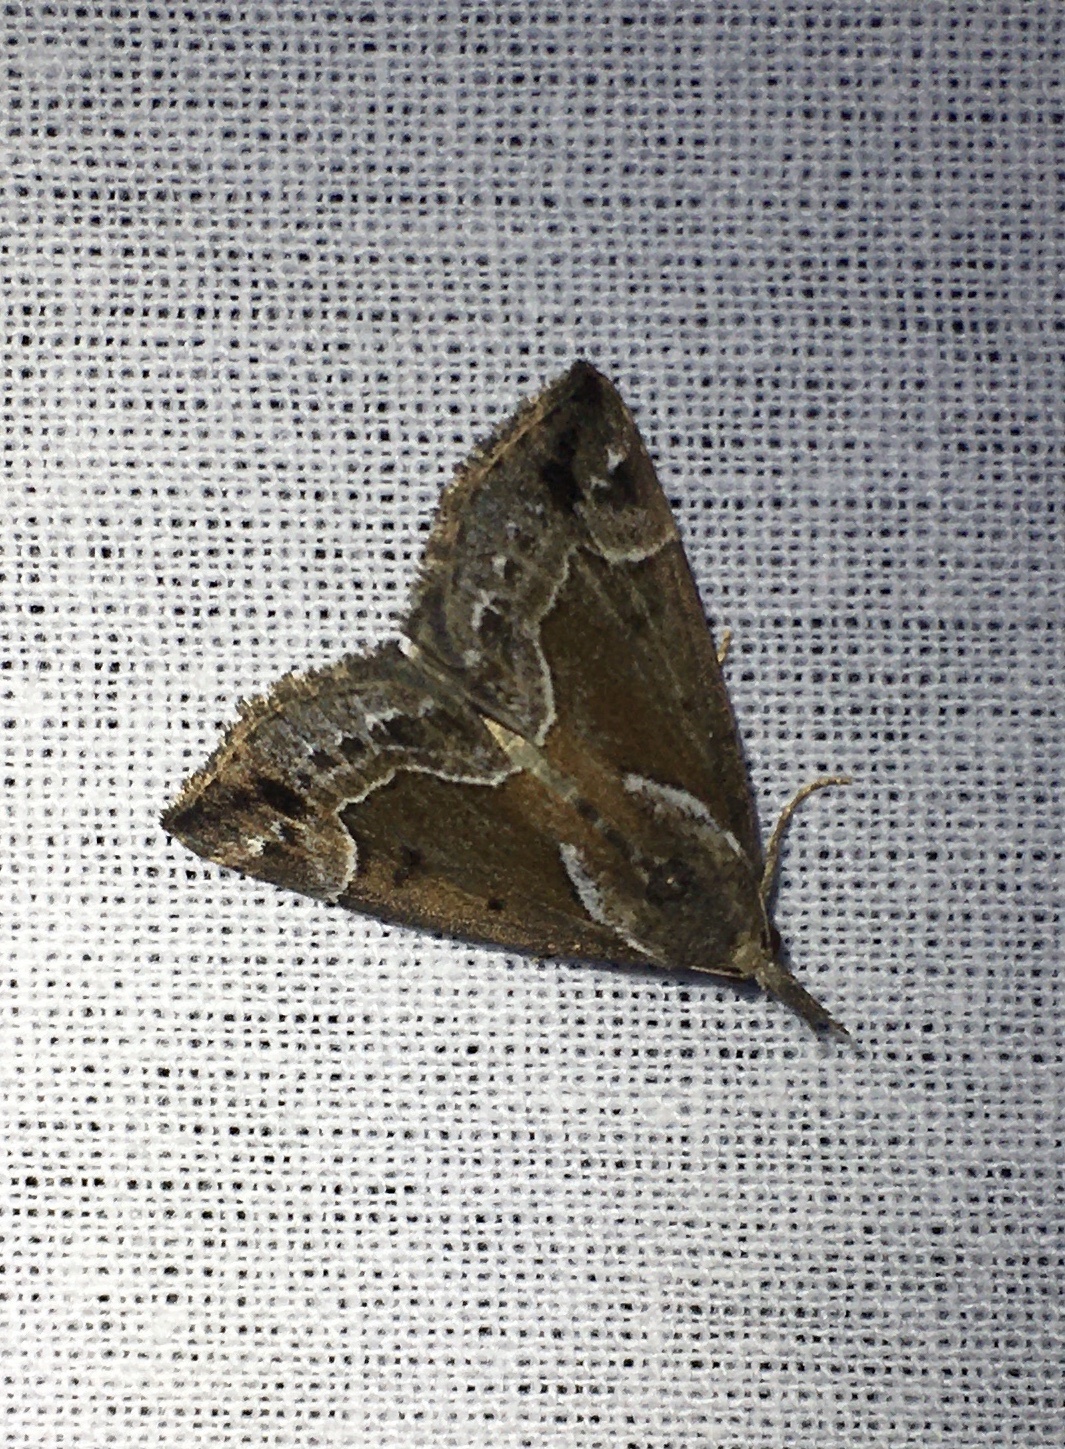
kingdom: Animalia
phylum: Arthropoda
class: Insecta
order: Lepidoptera
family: Erebidae
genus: Hypena
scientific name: Hypena crassalis
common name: Beautiful snout
